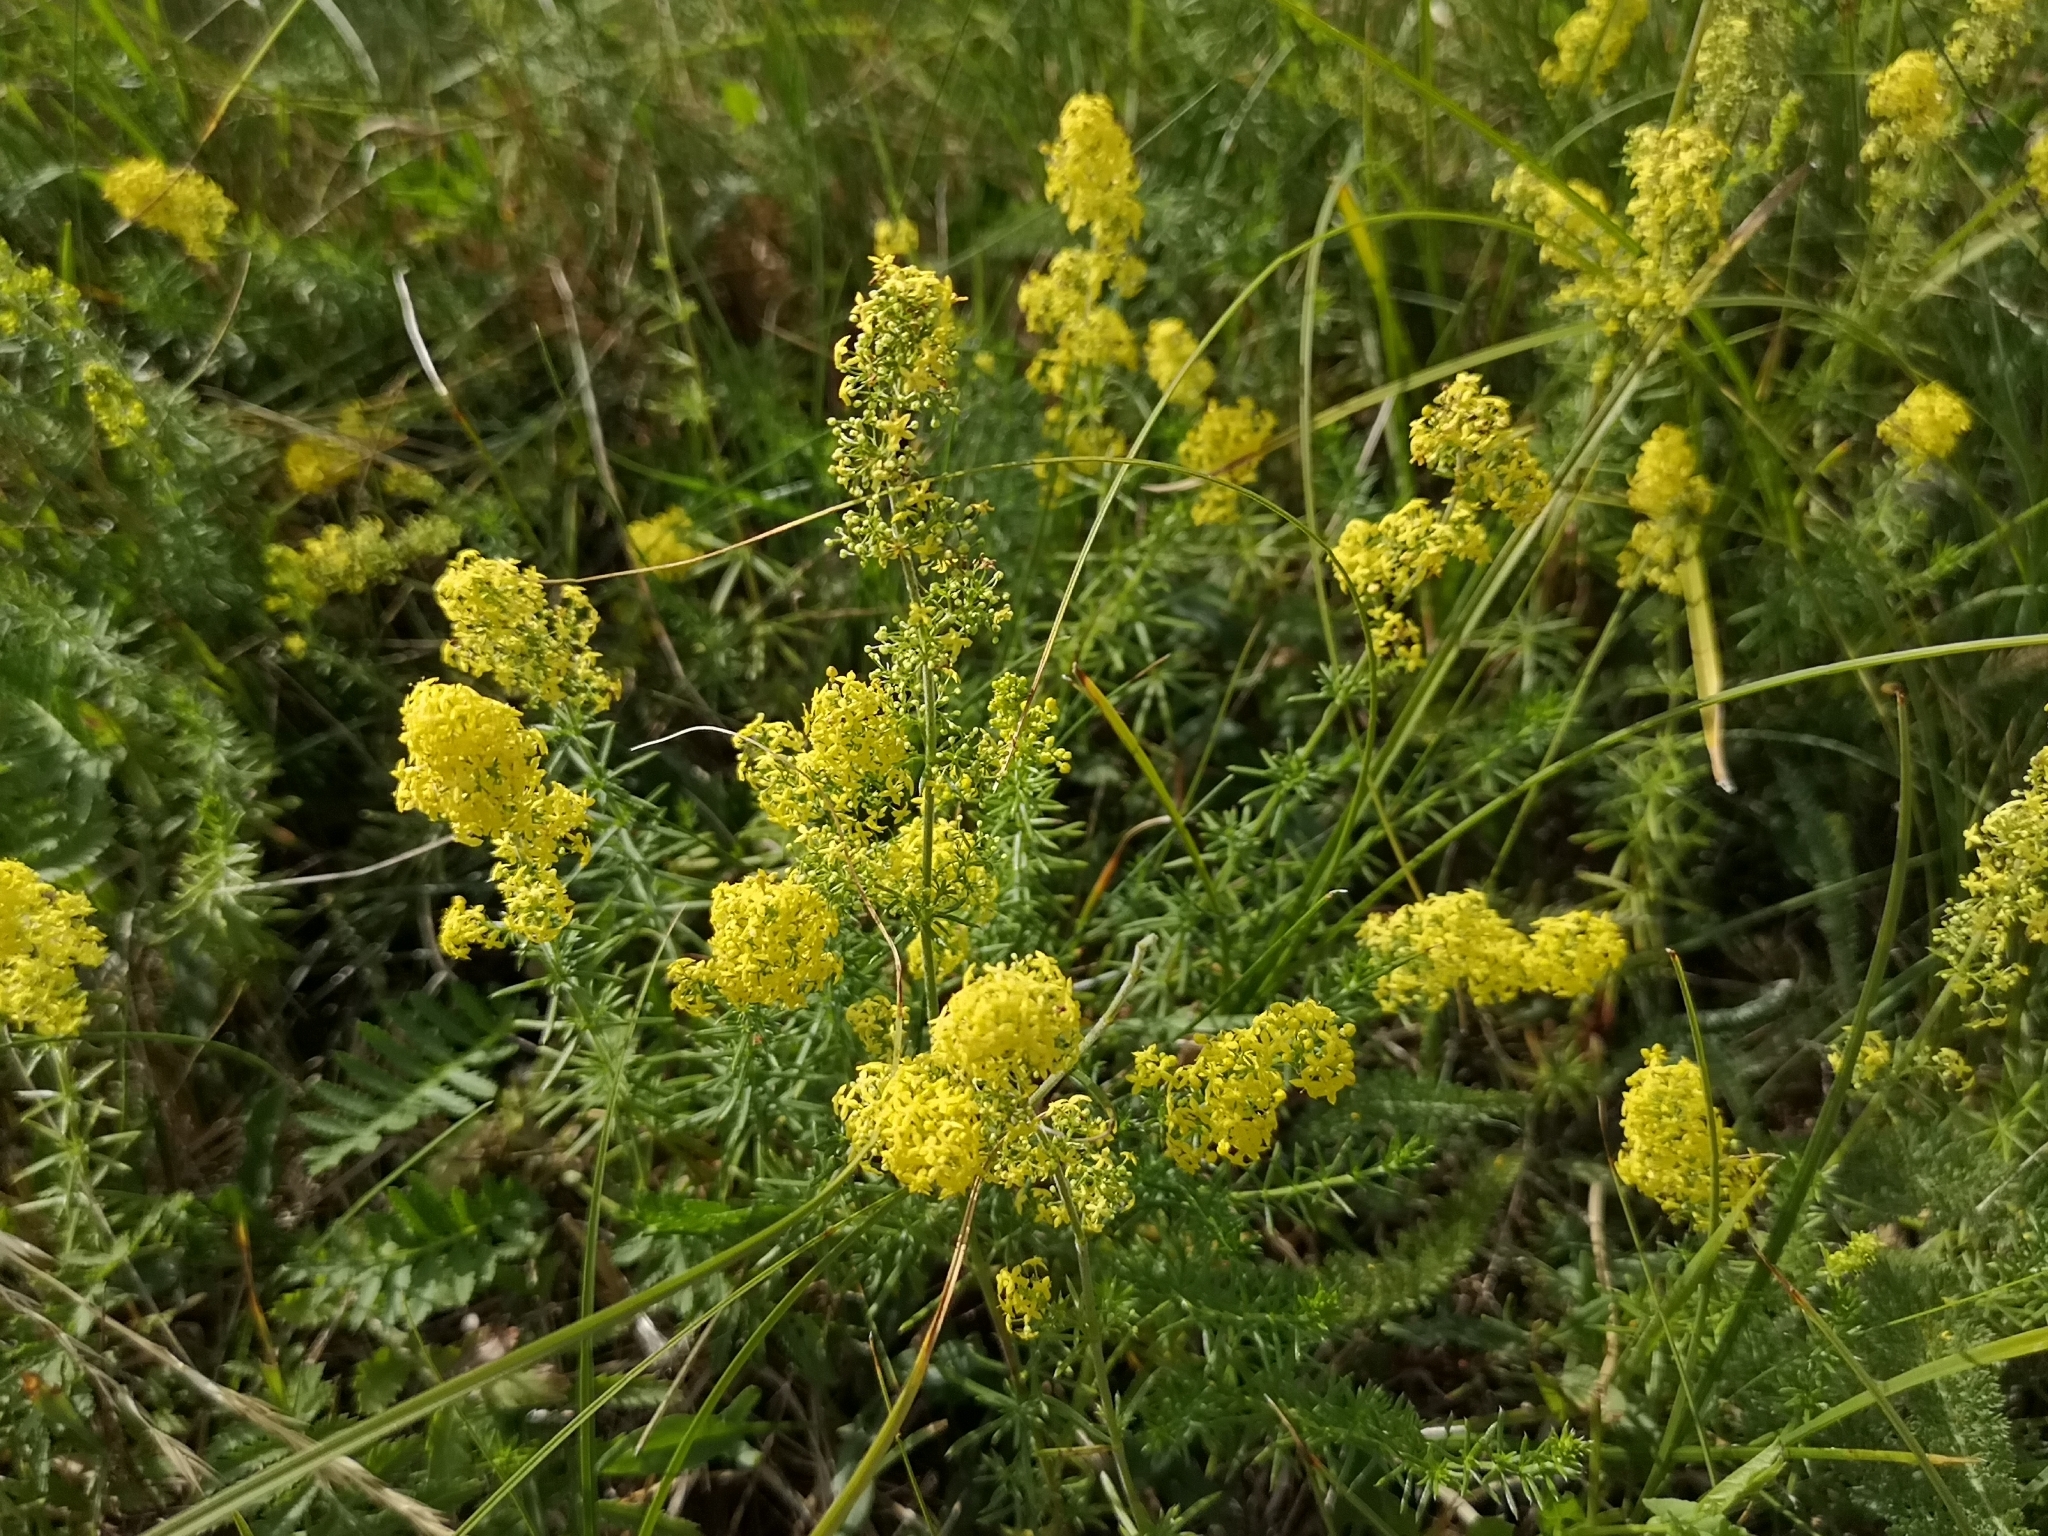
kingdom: Plantae
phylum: Tracheophyta
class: Magnoliopsida
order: Gentianales
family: Rubiaceae
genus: Galium
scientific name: Galium verum
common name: Lady's bedstraw
